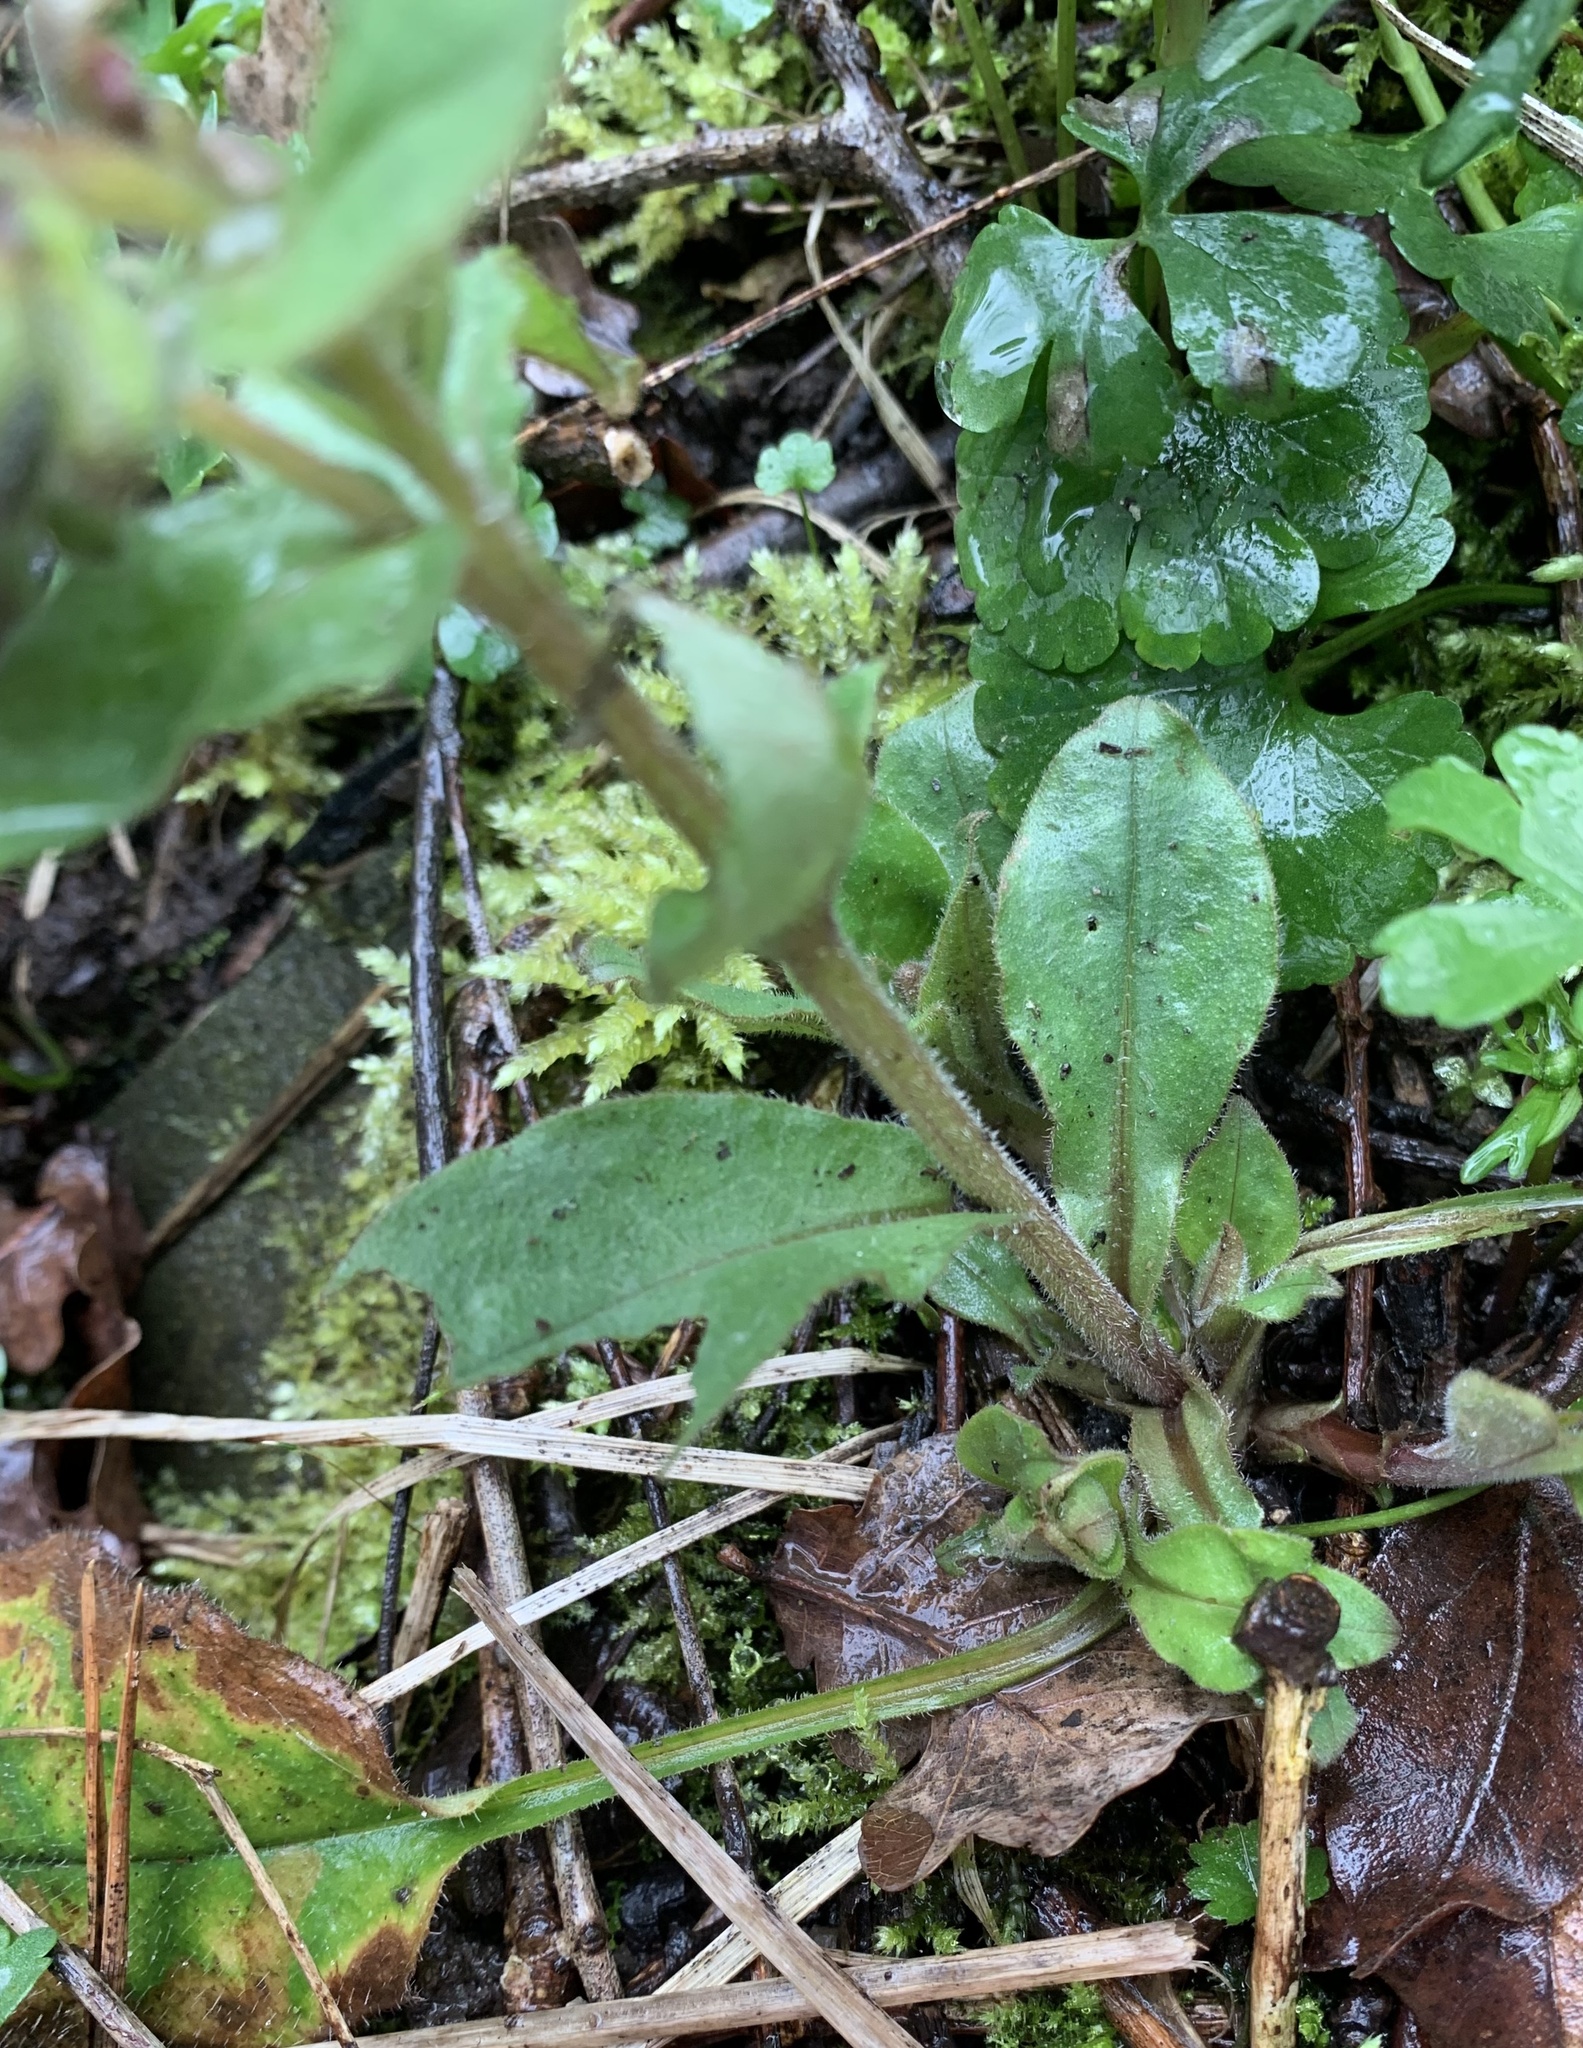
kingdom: Plantae
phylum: Tracheophyta
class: Magnoliopsida
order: Boraginales
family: Boraginaceae
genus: Pulmonaria
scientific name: Pulmonaria obscura
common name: Suffolk lungwort
